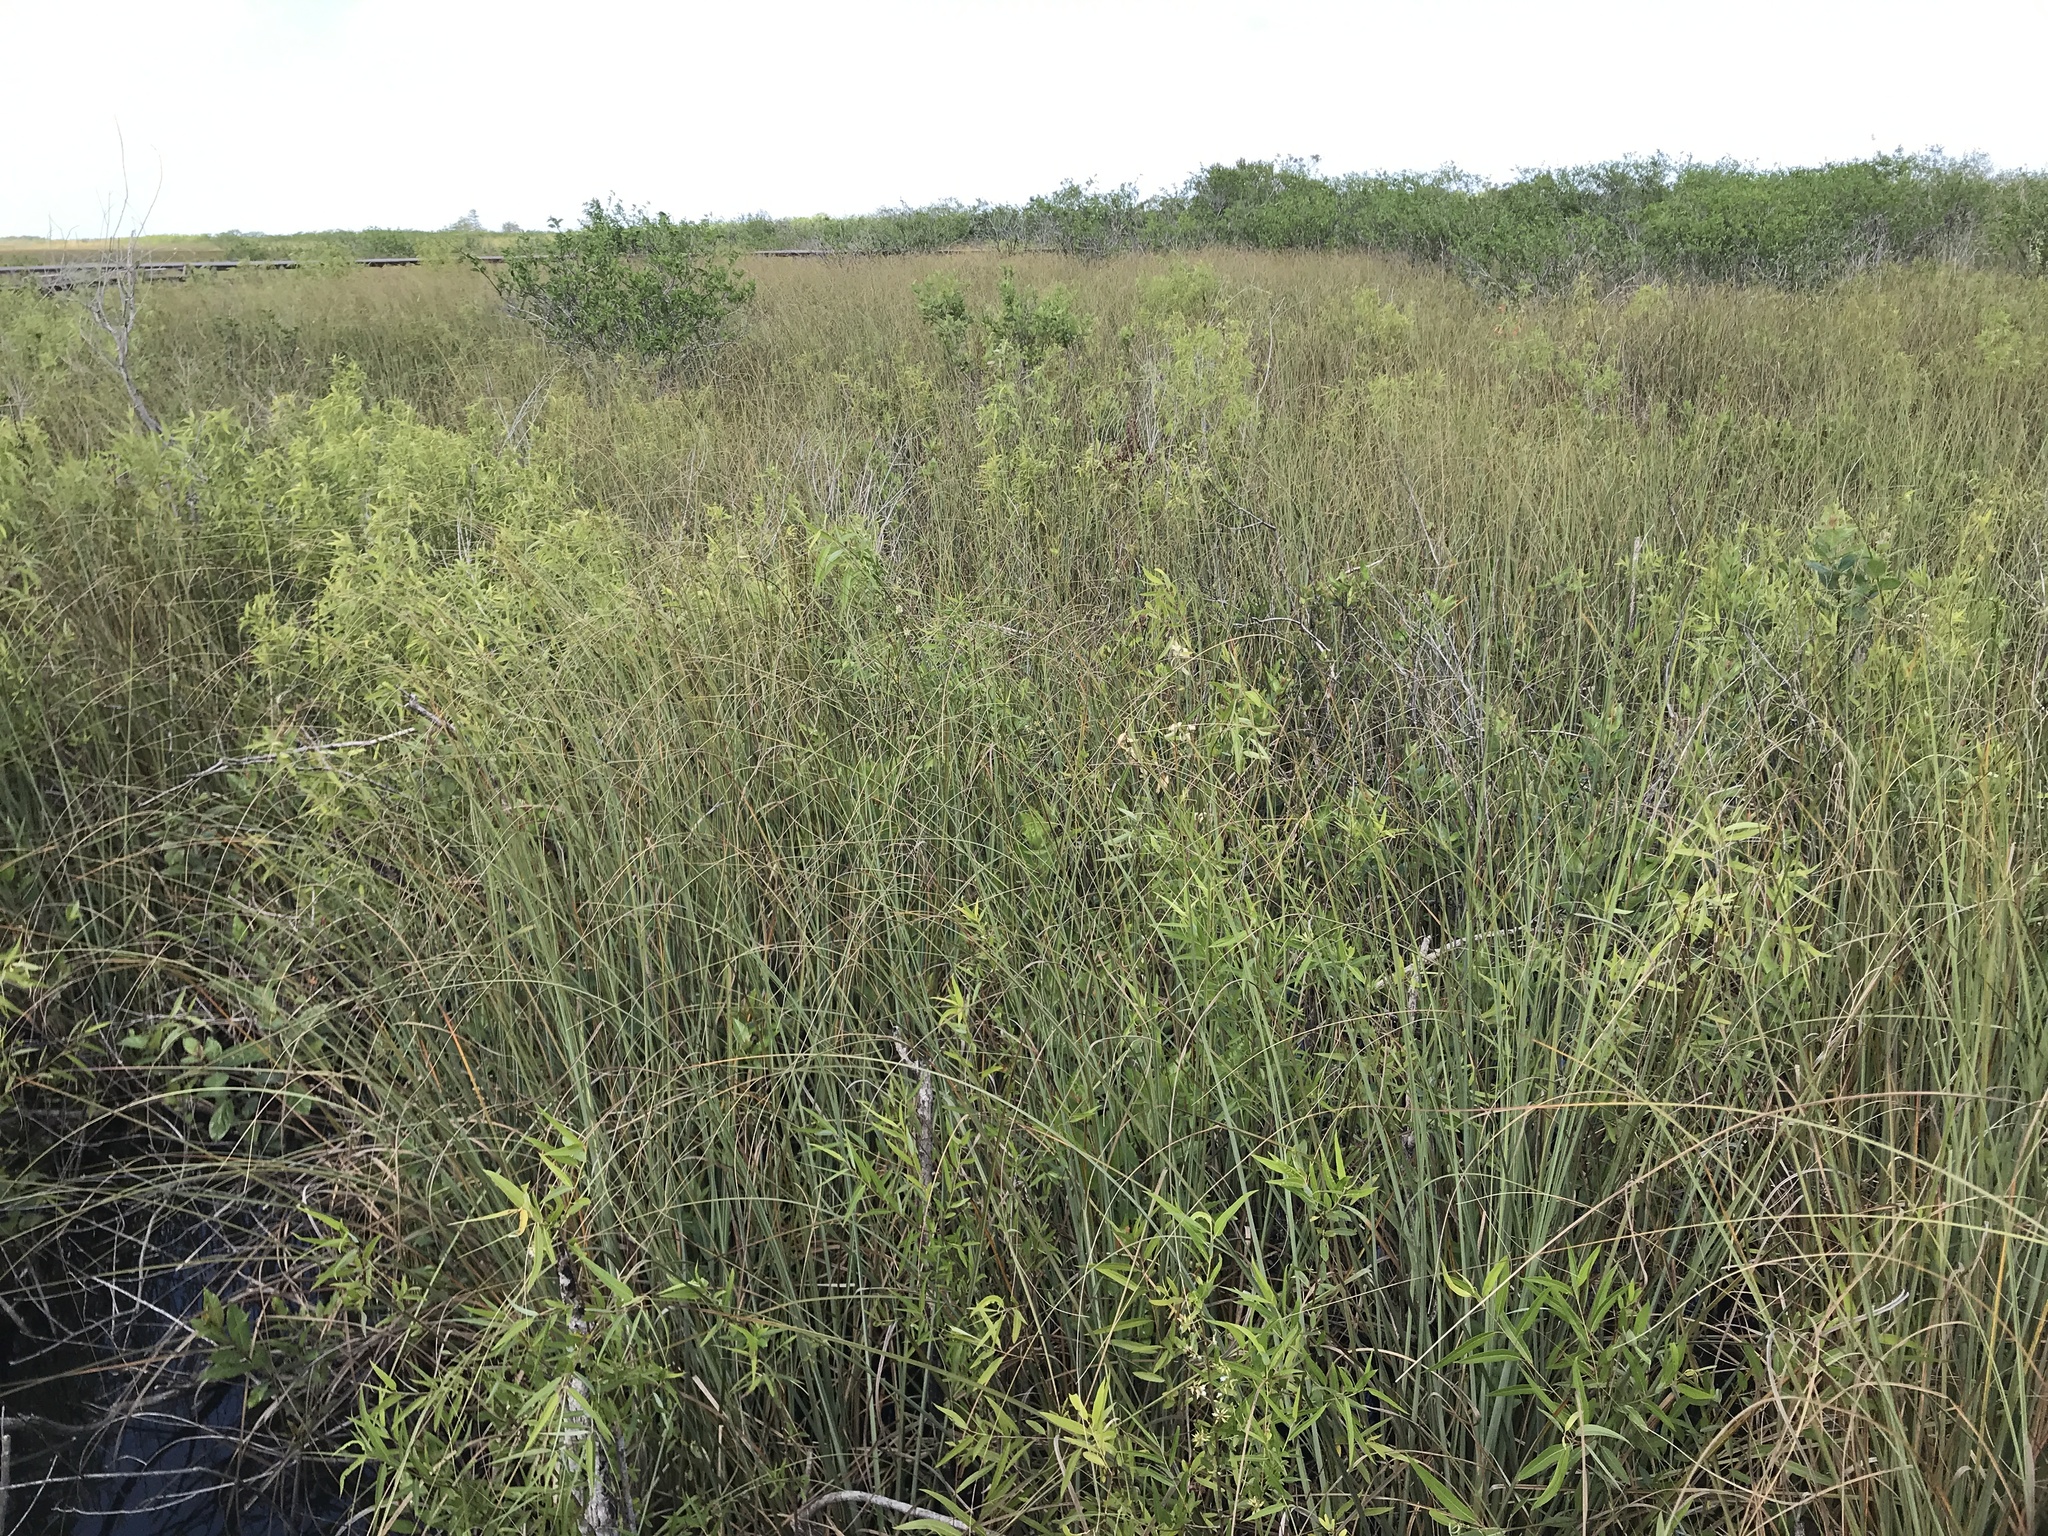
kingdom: Plantae
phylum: Tracheophyta
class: Liliopsida
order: Poales
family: Cyperaceae
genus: Cladium
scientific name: Cladium mariscus
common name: Great fen-sedge
